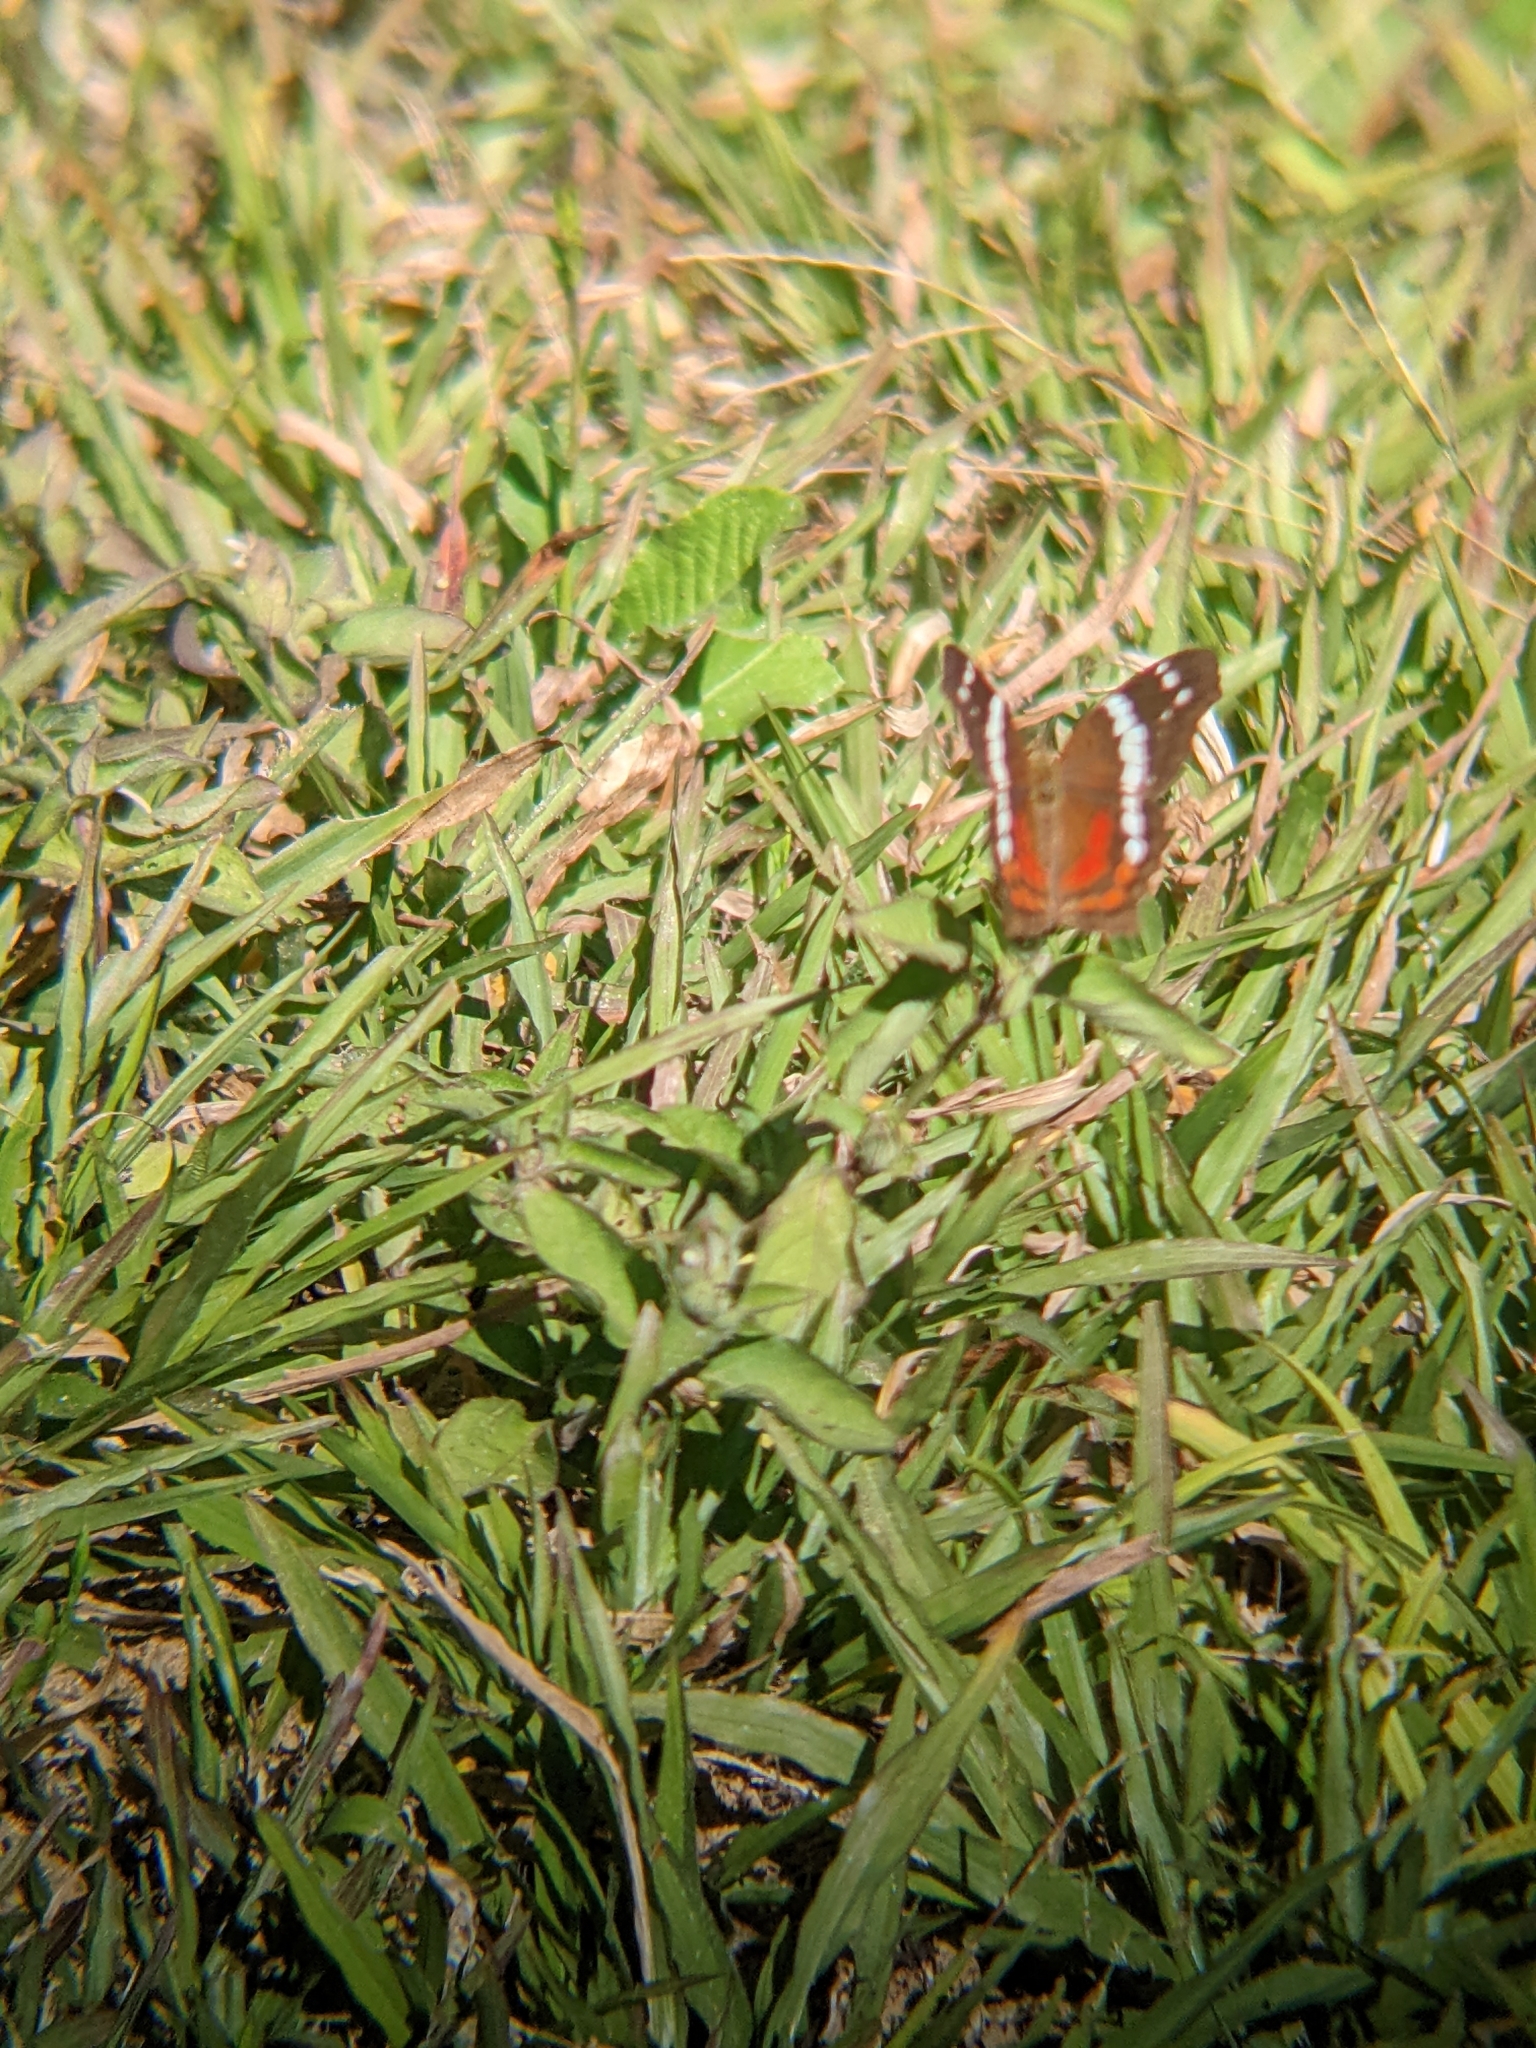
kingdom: Animalia
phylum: Arthropoda
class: Insecta
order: Lepidoptera
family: Nymphalidae
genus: Anartia
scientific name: Anartia fatima
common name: Banded peacock
